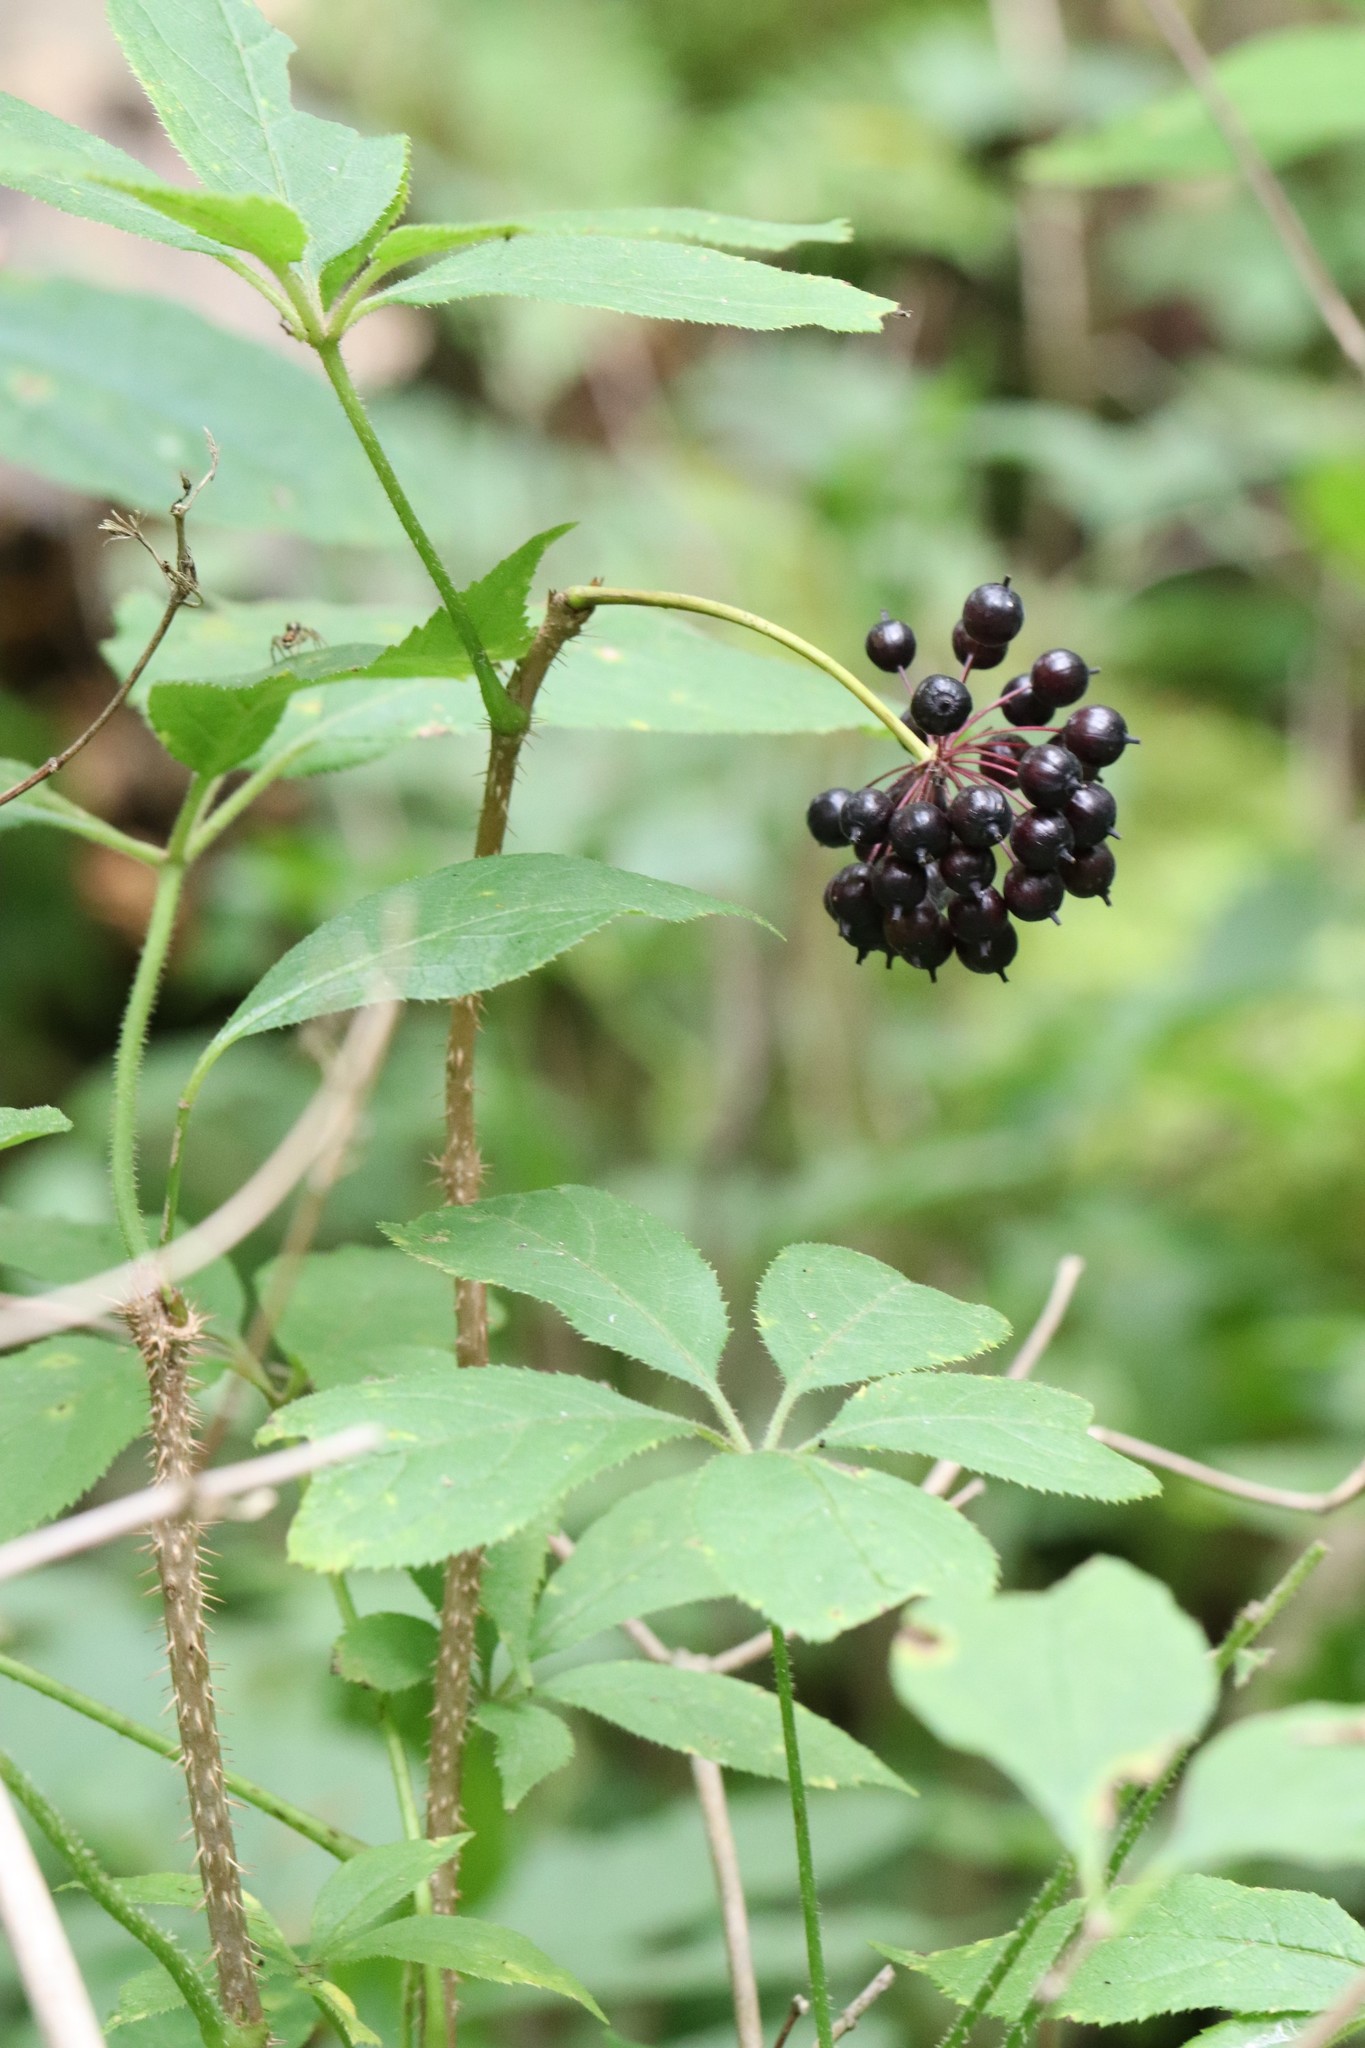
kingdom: Plantae
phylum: Tracheophyta
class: Magnoliopsida
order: Apiales
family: Araliaceae
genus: Eleutherococcus
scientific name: Eleutherococcus senticosus
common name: Siberian-ginseng
